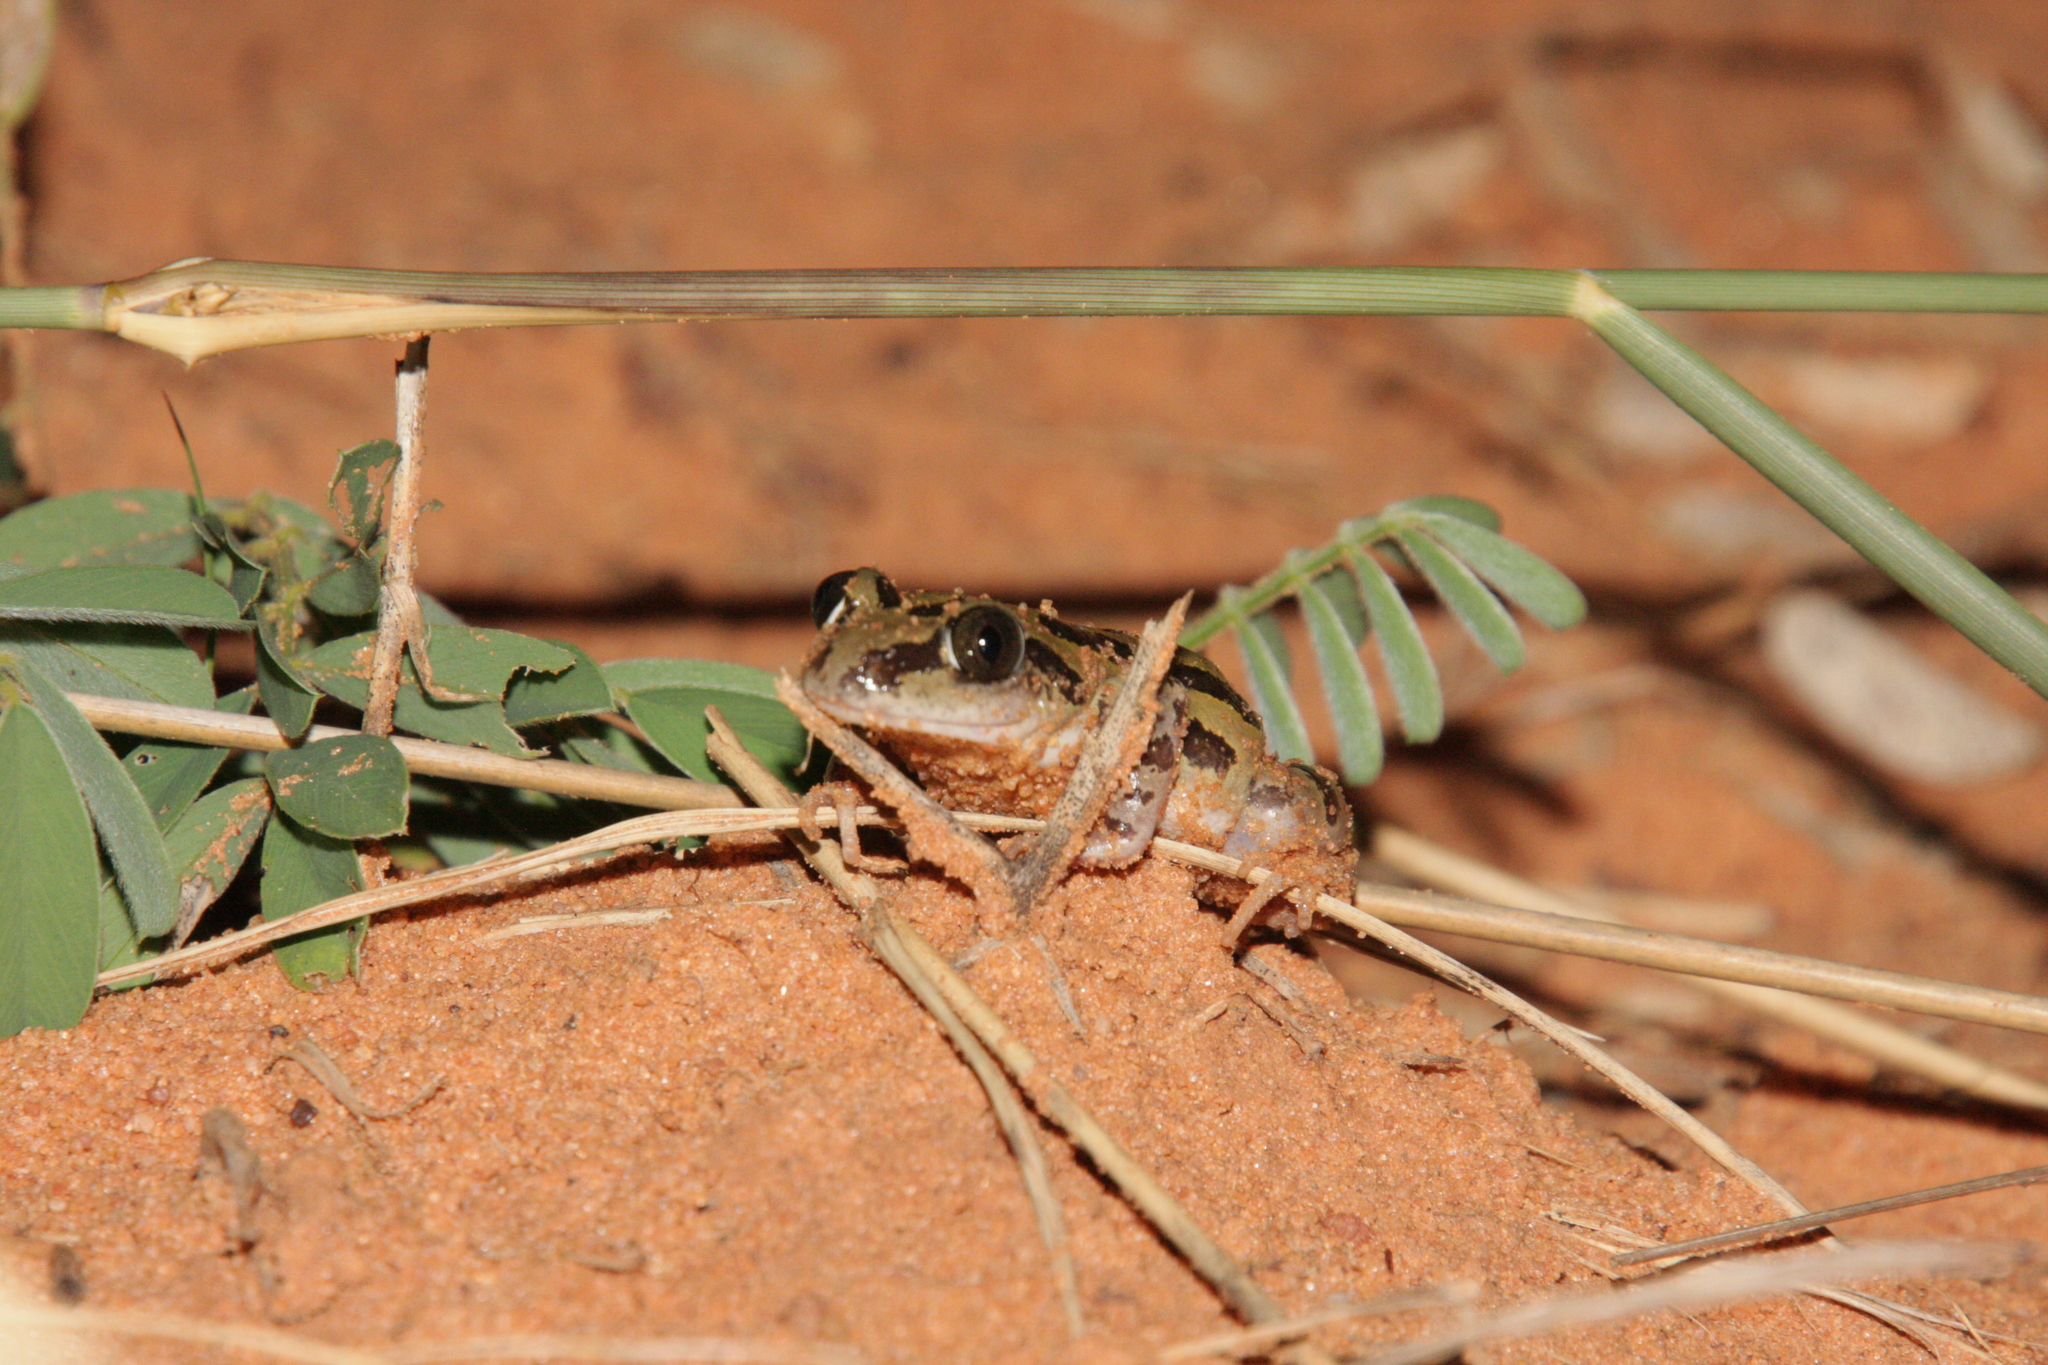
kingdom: Animalia
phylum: Chordata
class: Amphibia
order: Anura
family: Hyperoliidae
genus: Kassina
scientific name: Kassina senegalensis
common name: Senegal land frog
